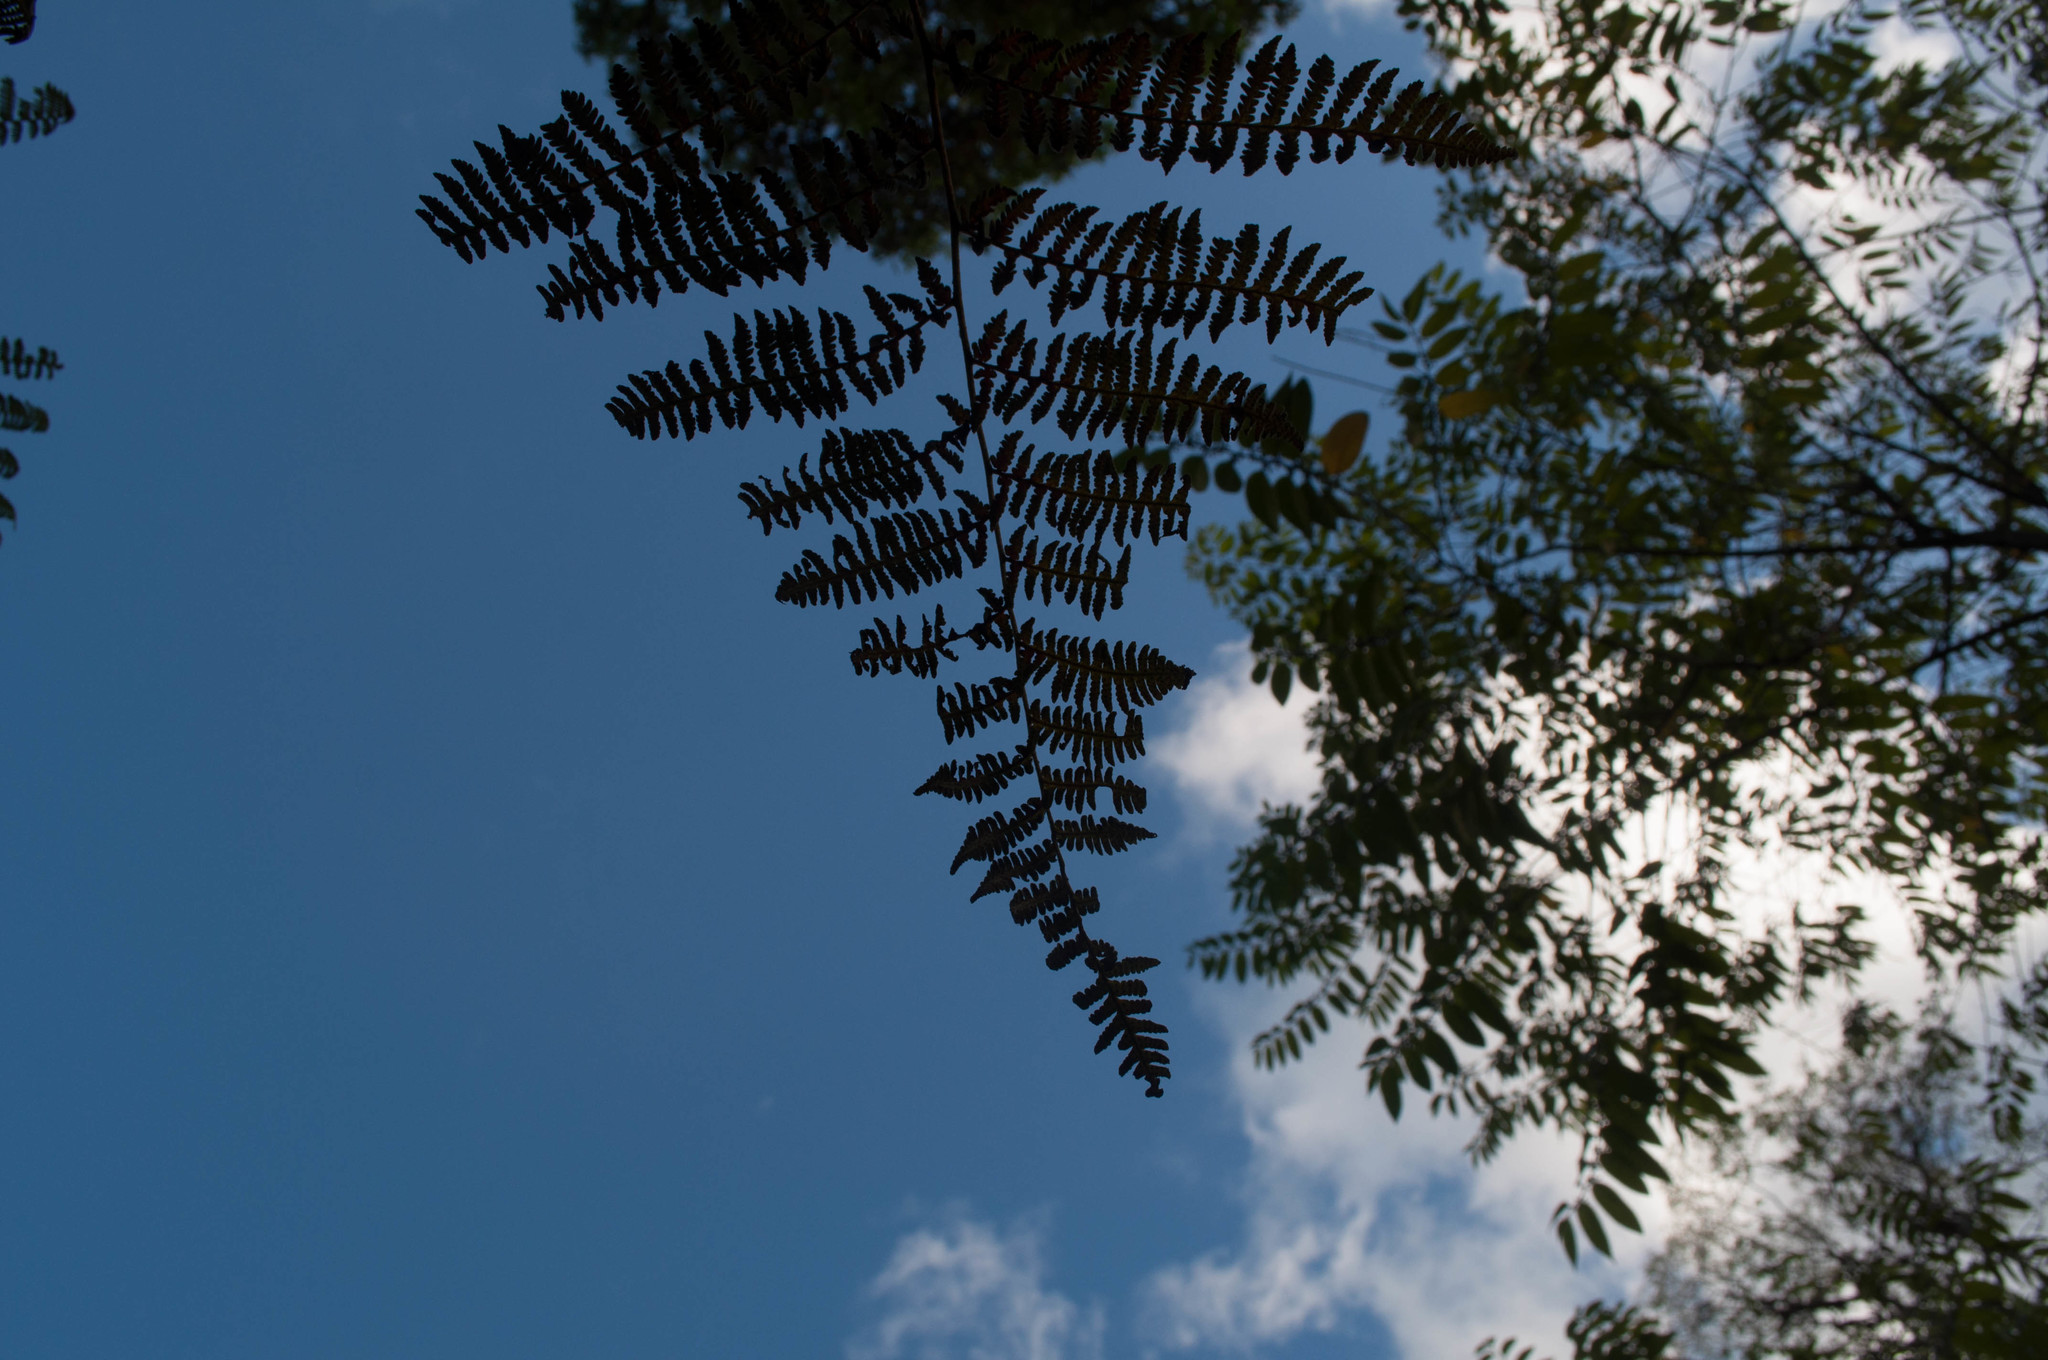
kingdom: Plantae
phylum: Tracheophyta
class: Polypodiopsida
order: Polypodiales
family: Dennstaedtiaceae
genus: Pteridium
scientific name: Pteridium esculentum
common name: Bracken fern
